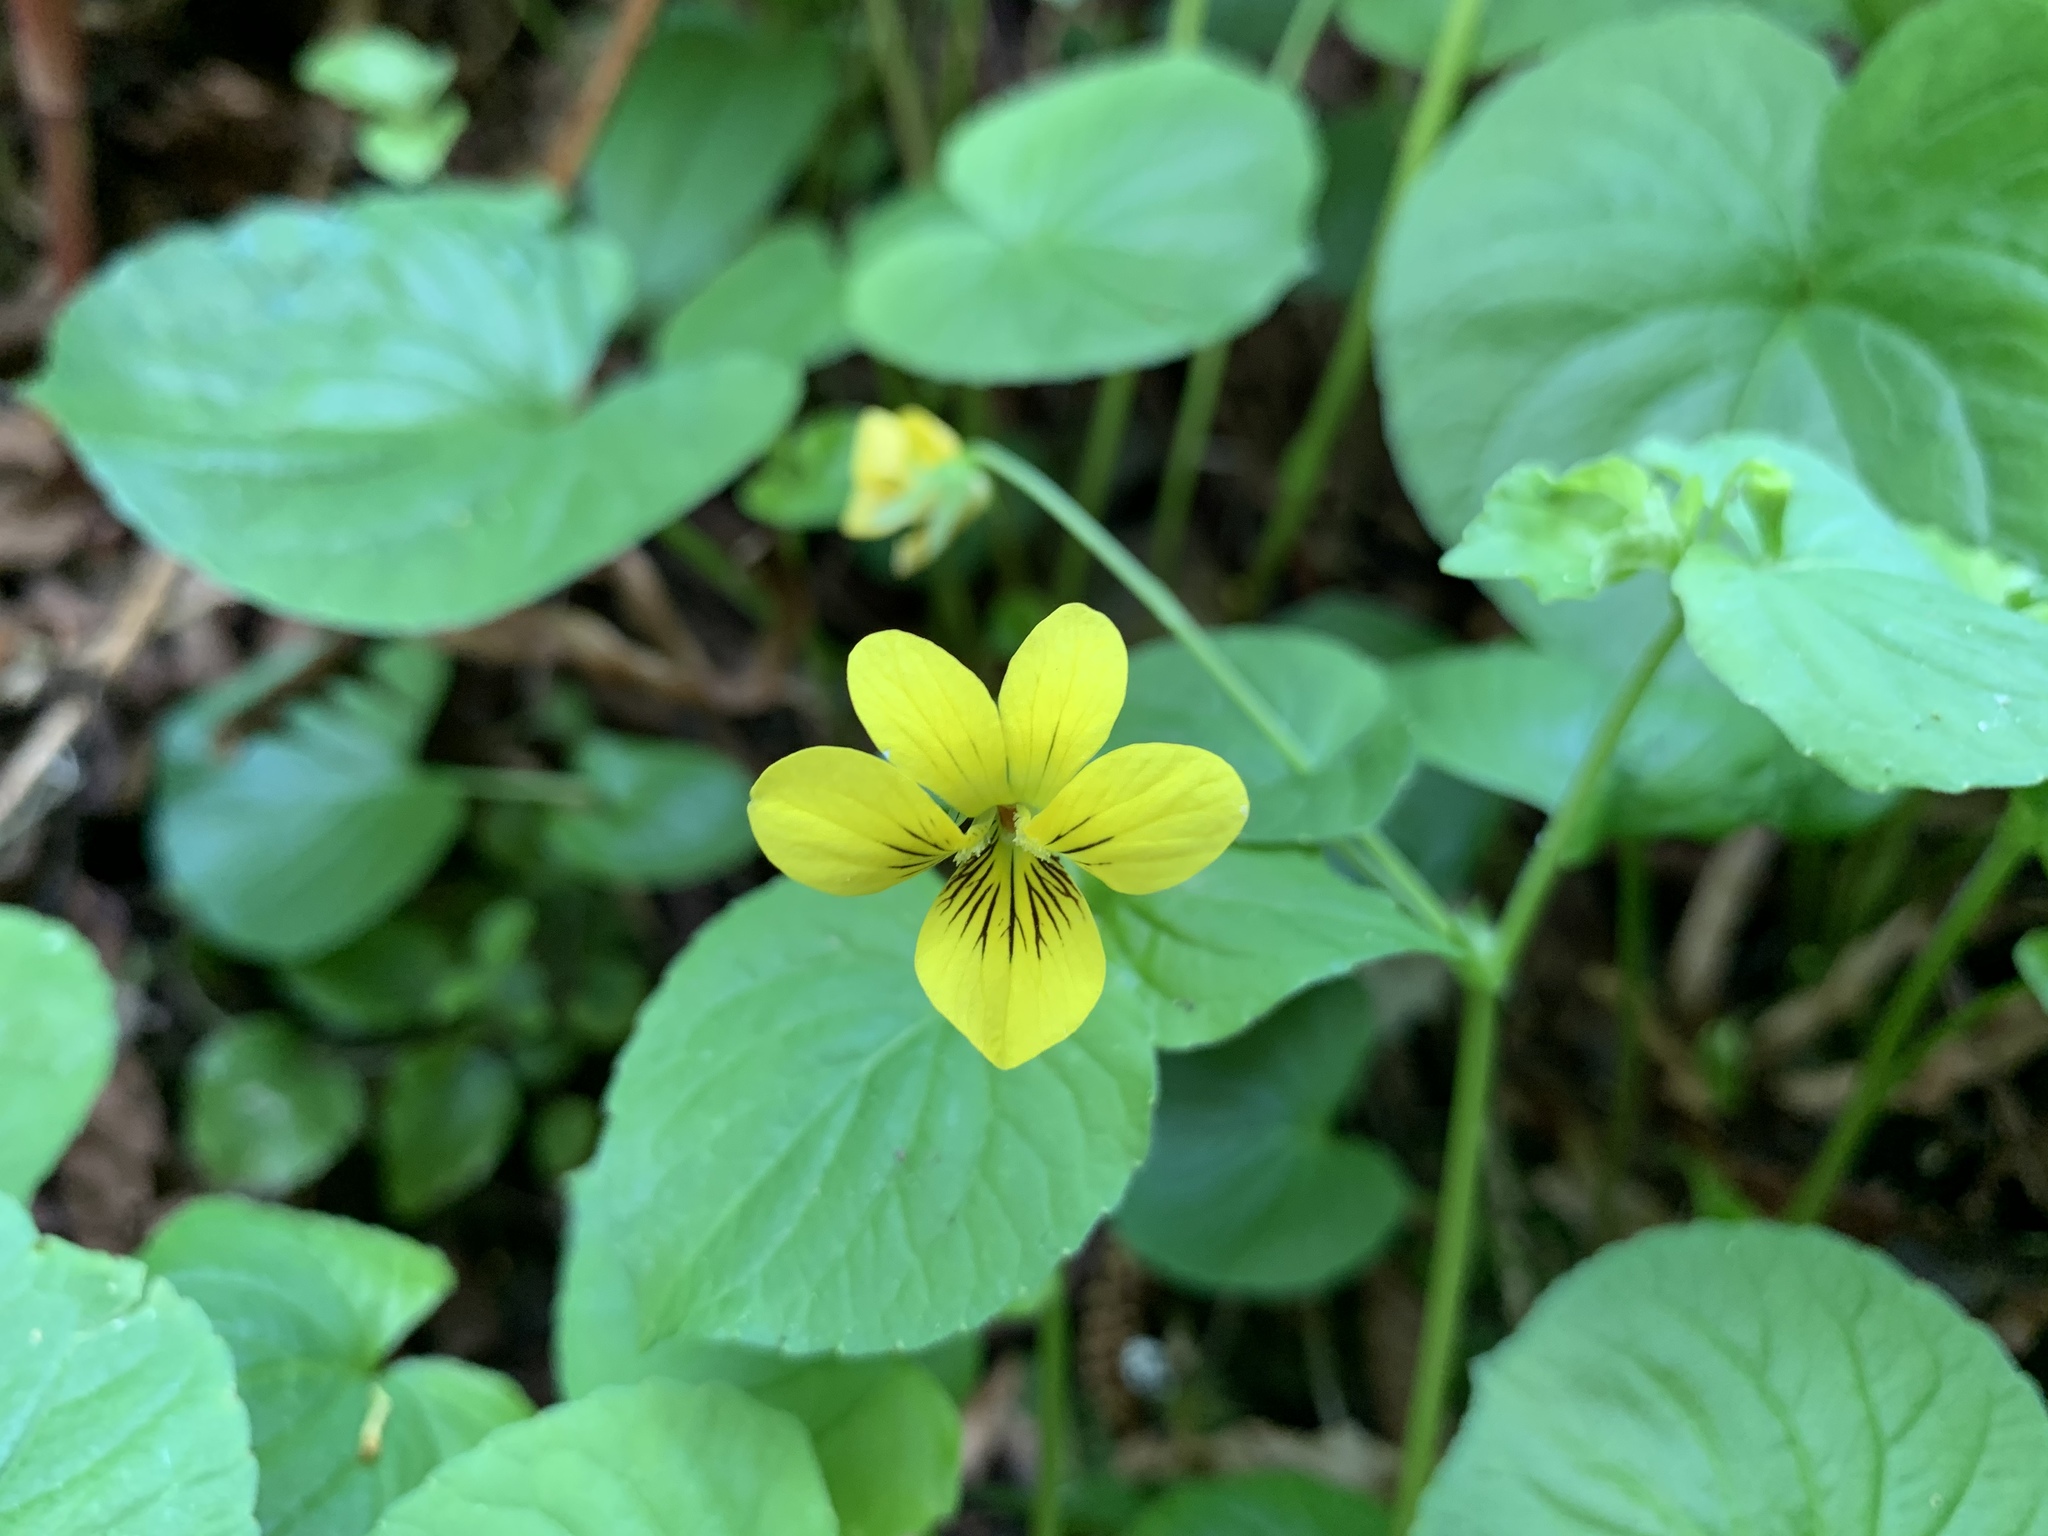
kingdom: Plantae
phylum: Tracheophyta
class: Magnoliopsida
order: Malpighiales
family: Violaceae
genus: Viola
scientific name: Viola glabella
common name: Stream violet
